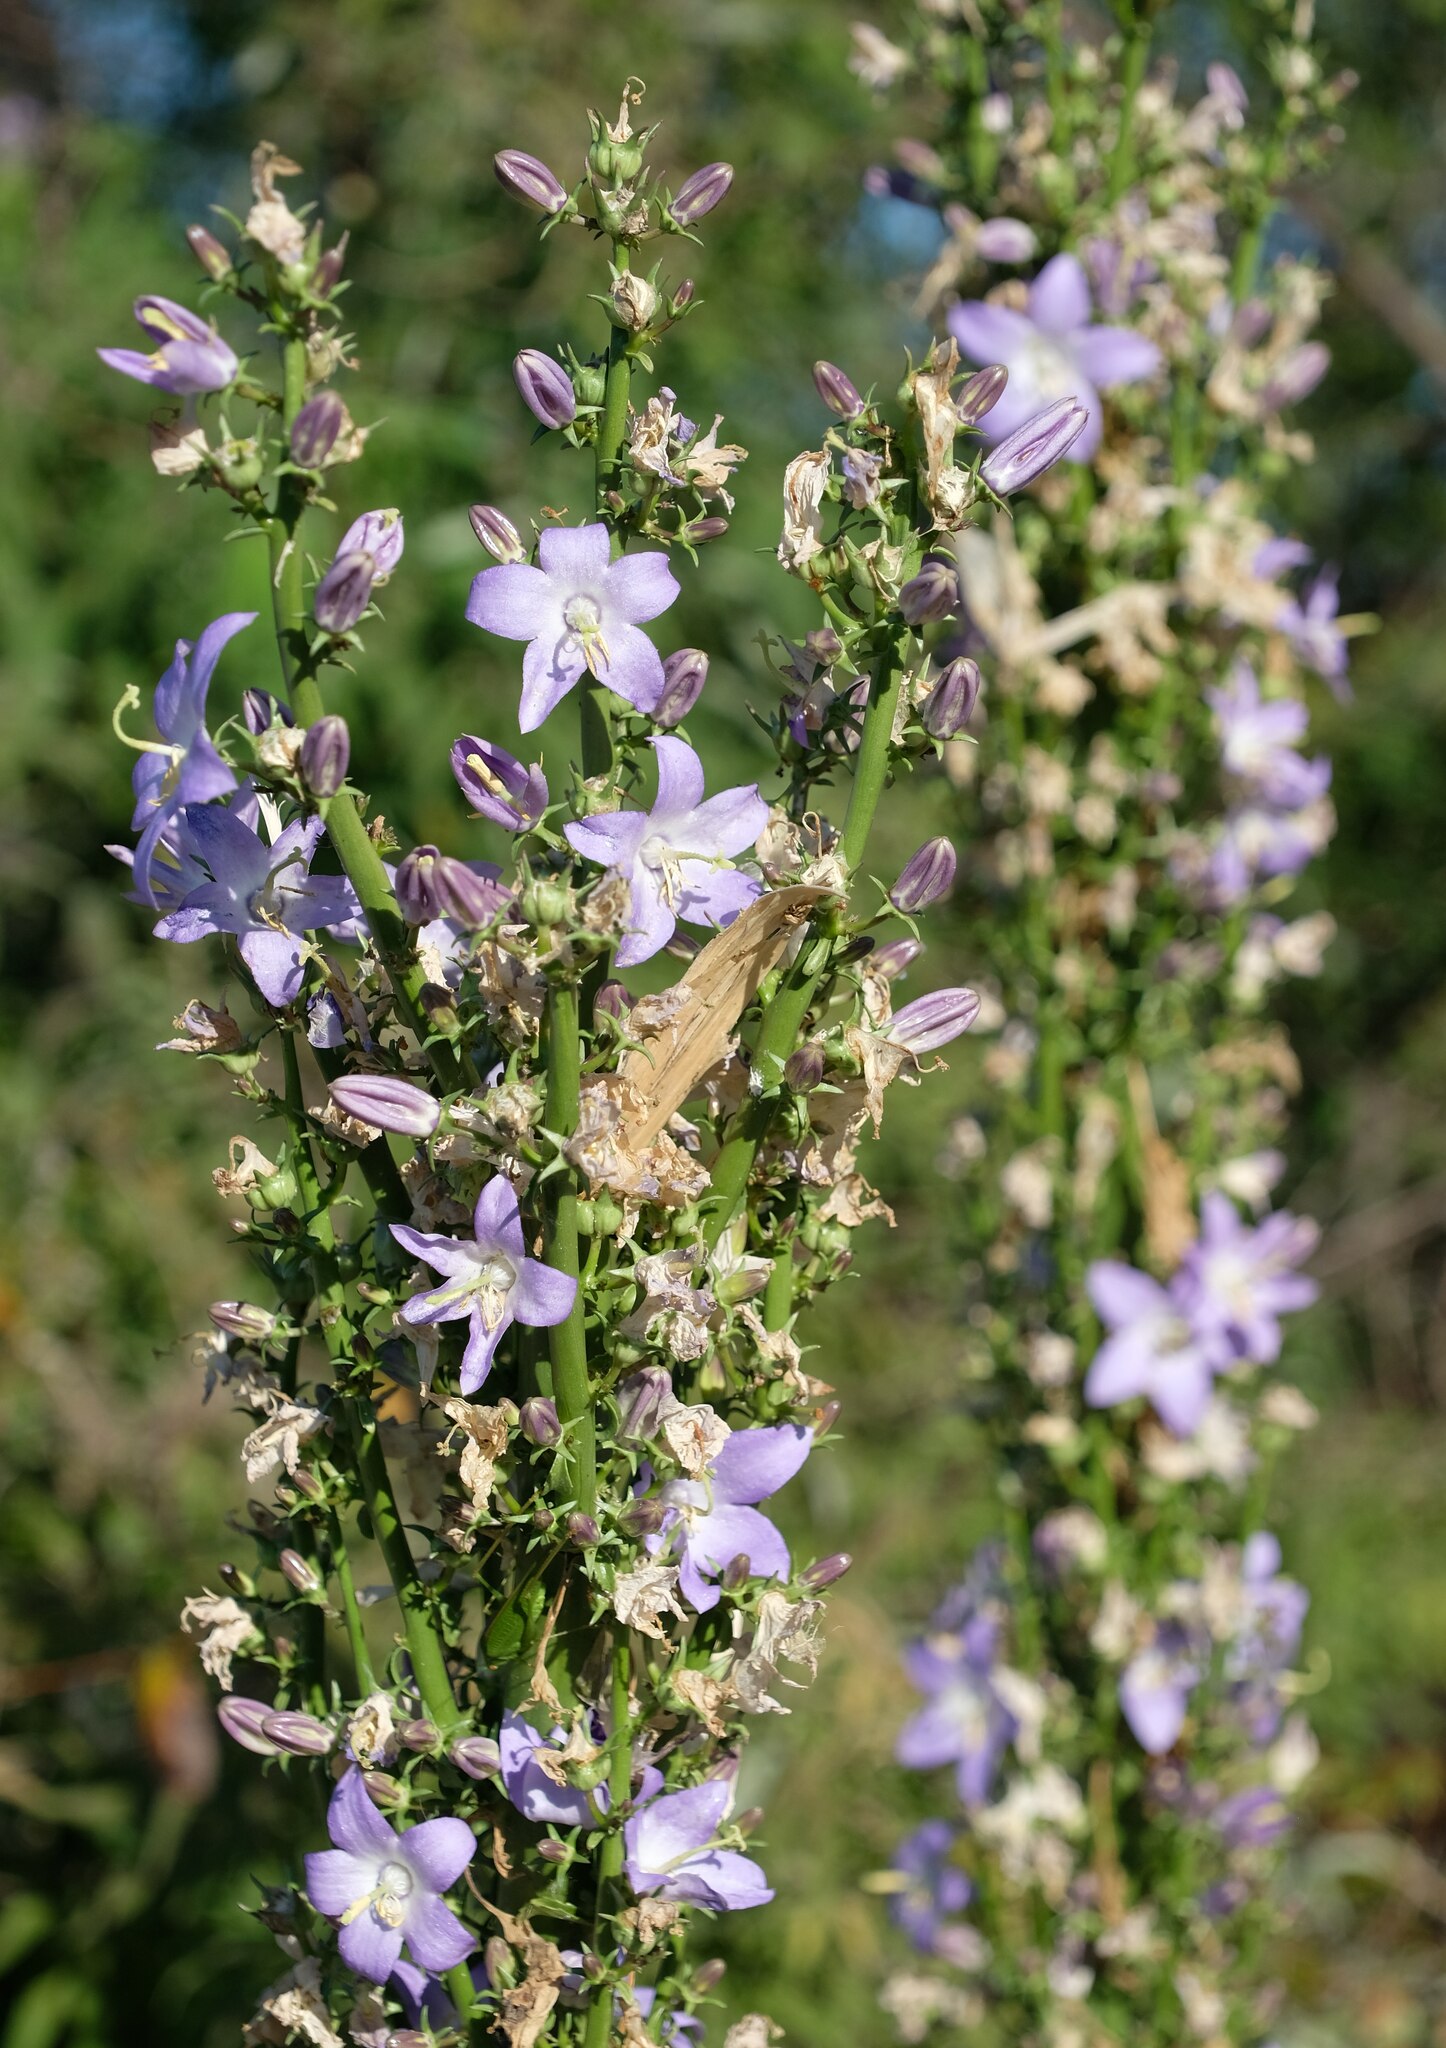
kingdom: Plantae
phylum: Tracheophyta
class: Magnoliopsida
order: Asterales
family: Campanulaceae
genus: Campanula
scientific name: Campanula pyramidalis
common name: Chimney bellflower
